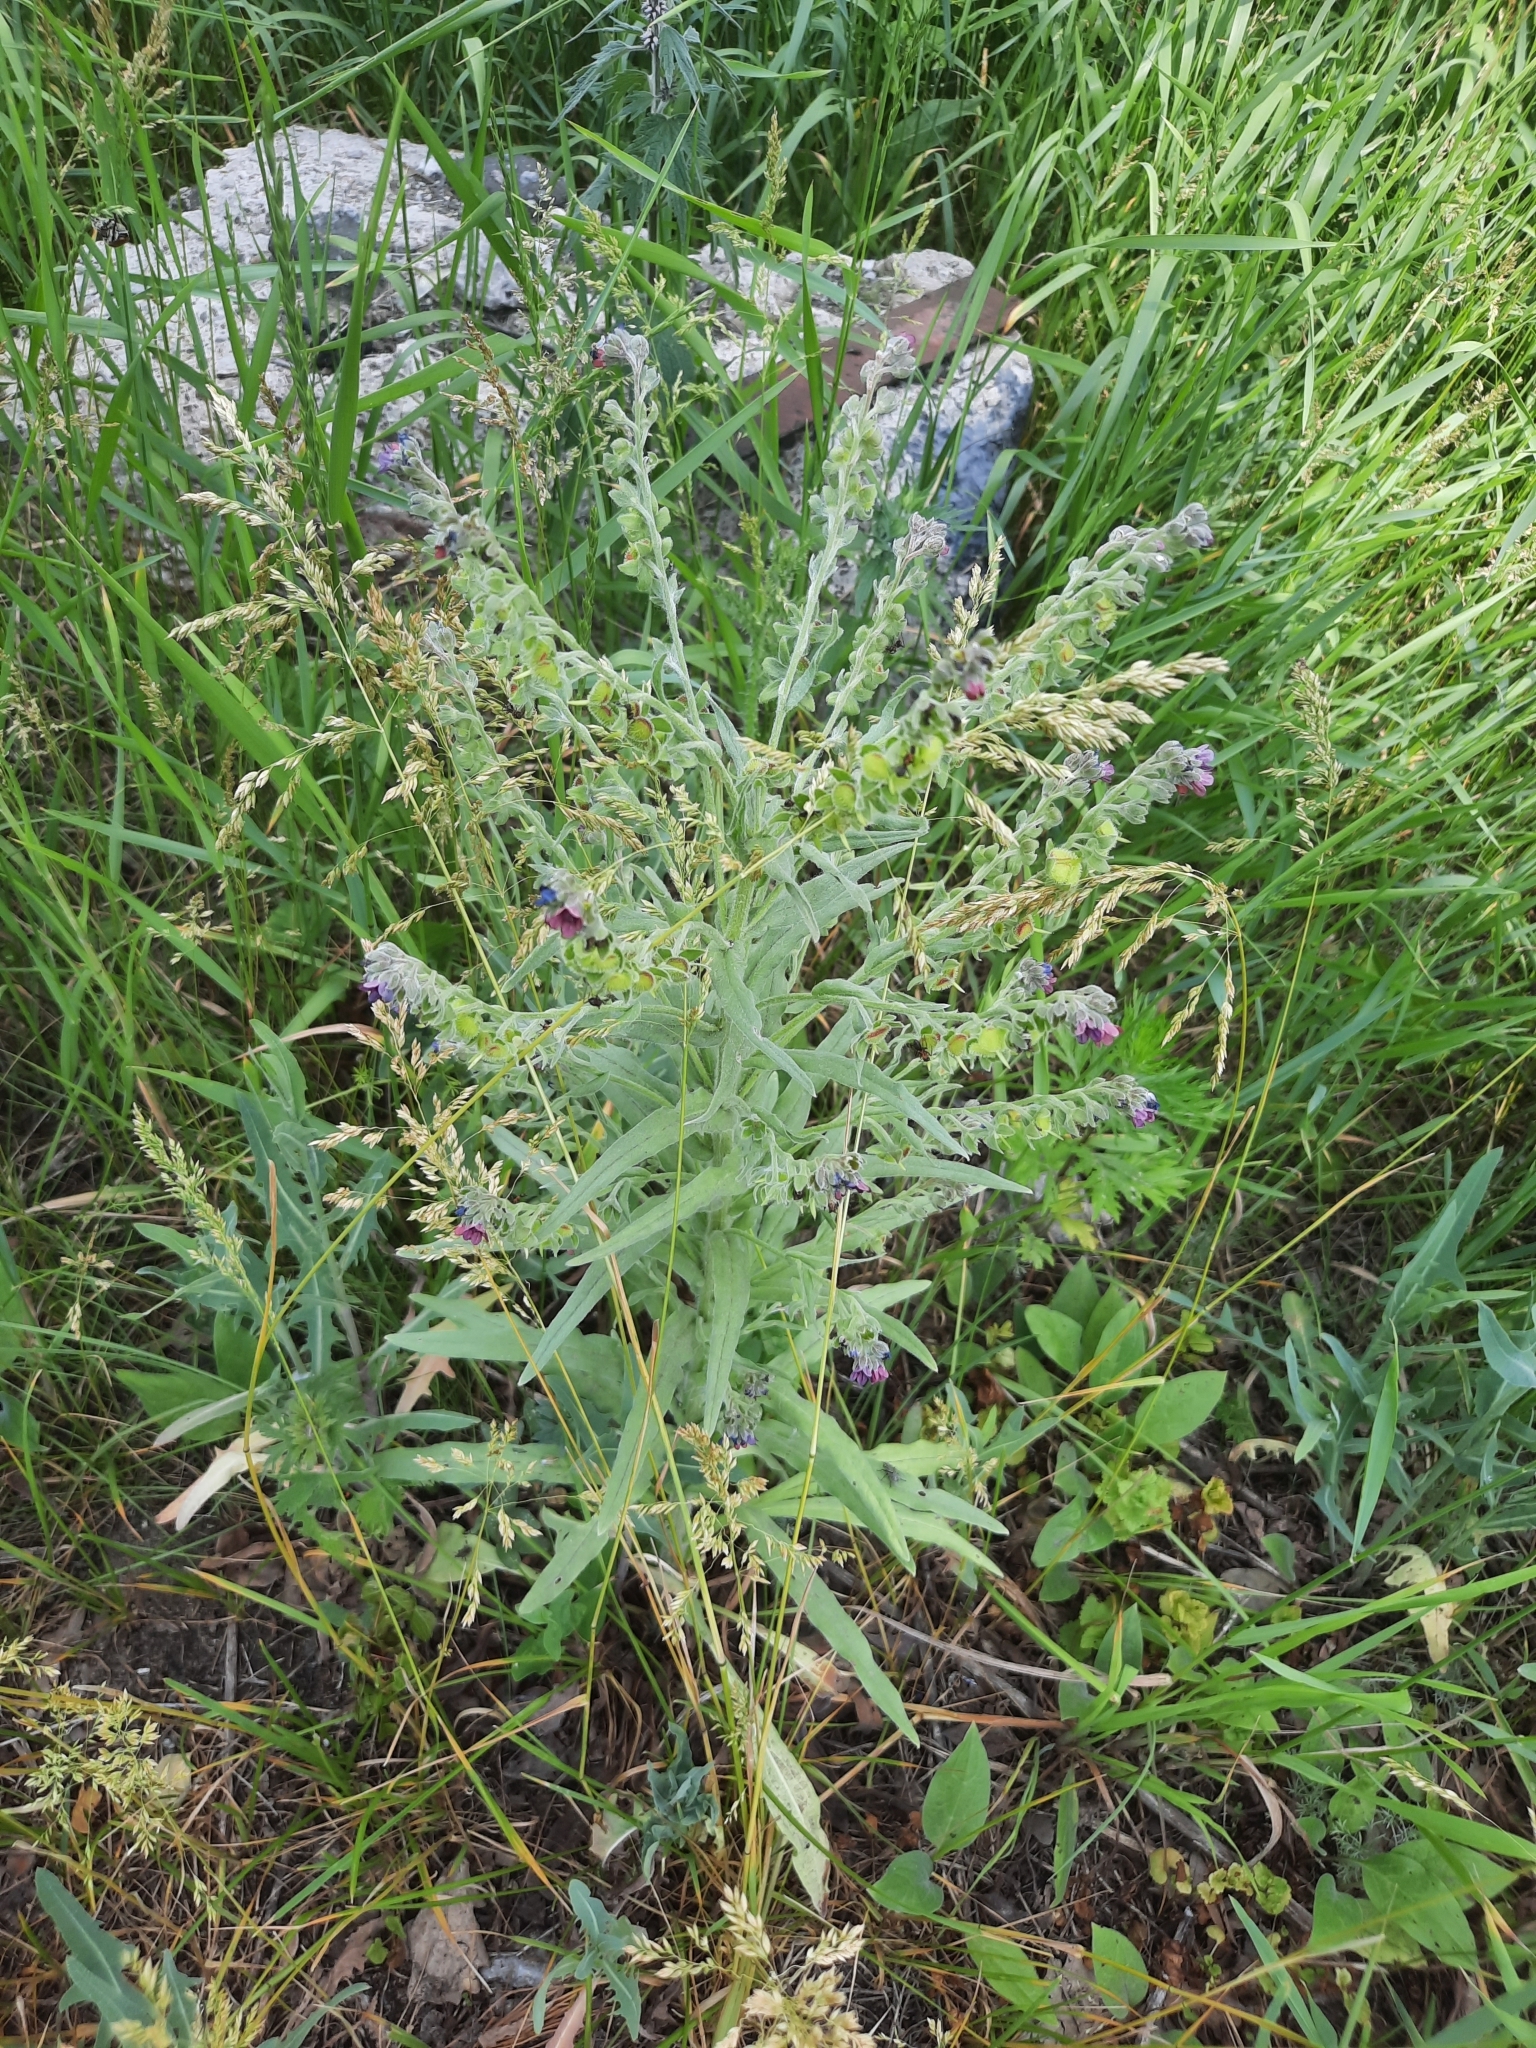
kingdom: Plantae
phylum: Tracheophyta
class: Magnoliopsida
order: Boraginales
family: Boraginaceae
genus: Cynoglossum
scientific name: Cynoglossum officinale
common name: Hound's-tongue
